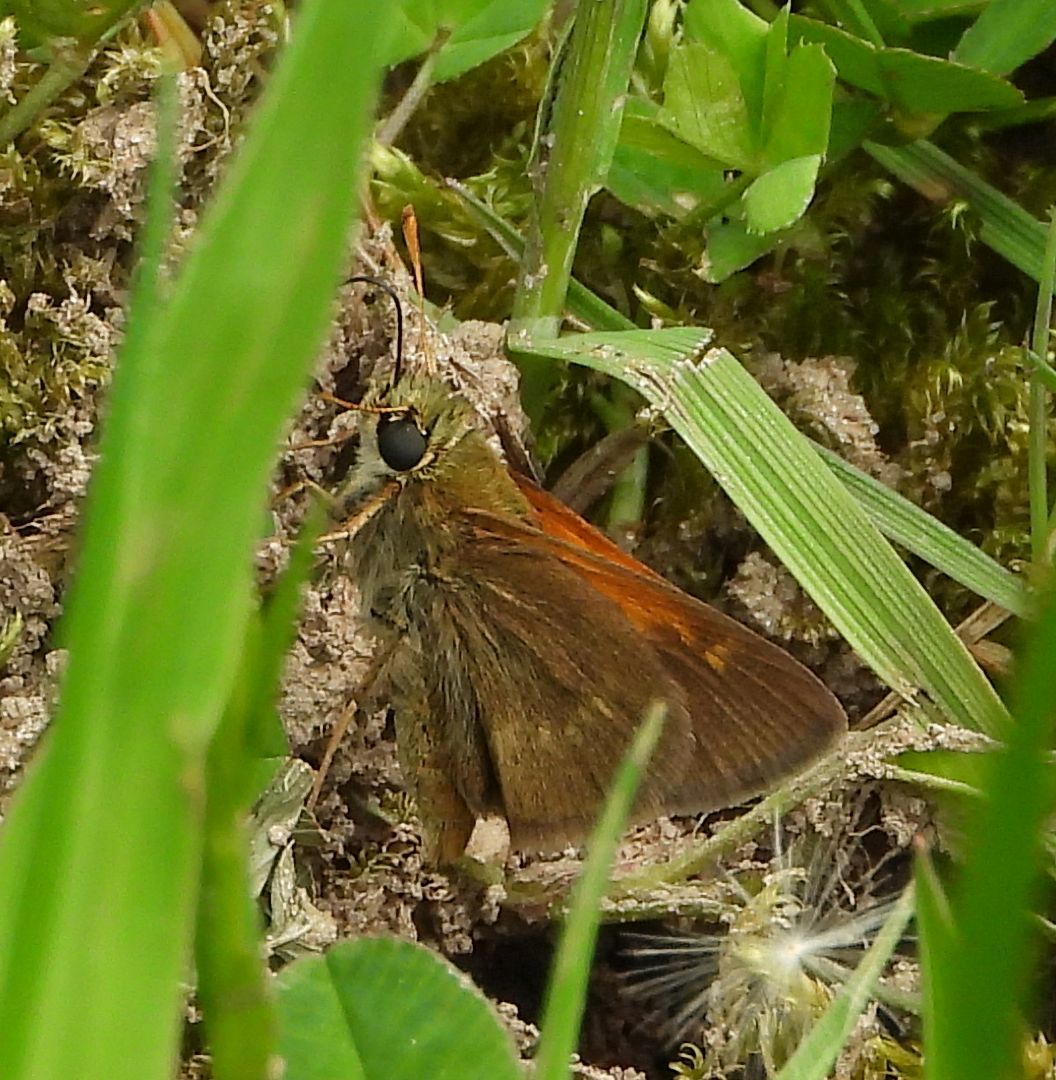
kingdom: Animalia
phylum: Arthropoda
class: Insecta
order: Lepidoptera
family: Hesperiidae
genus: Polites
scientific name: Polites themistocles
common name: Tawny-edged skipper
